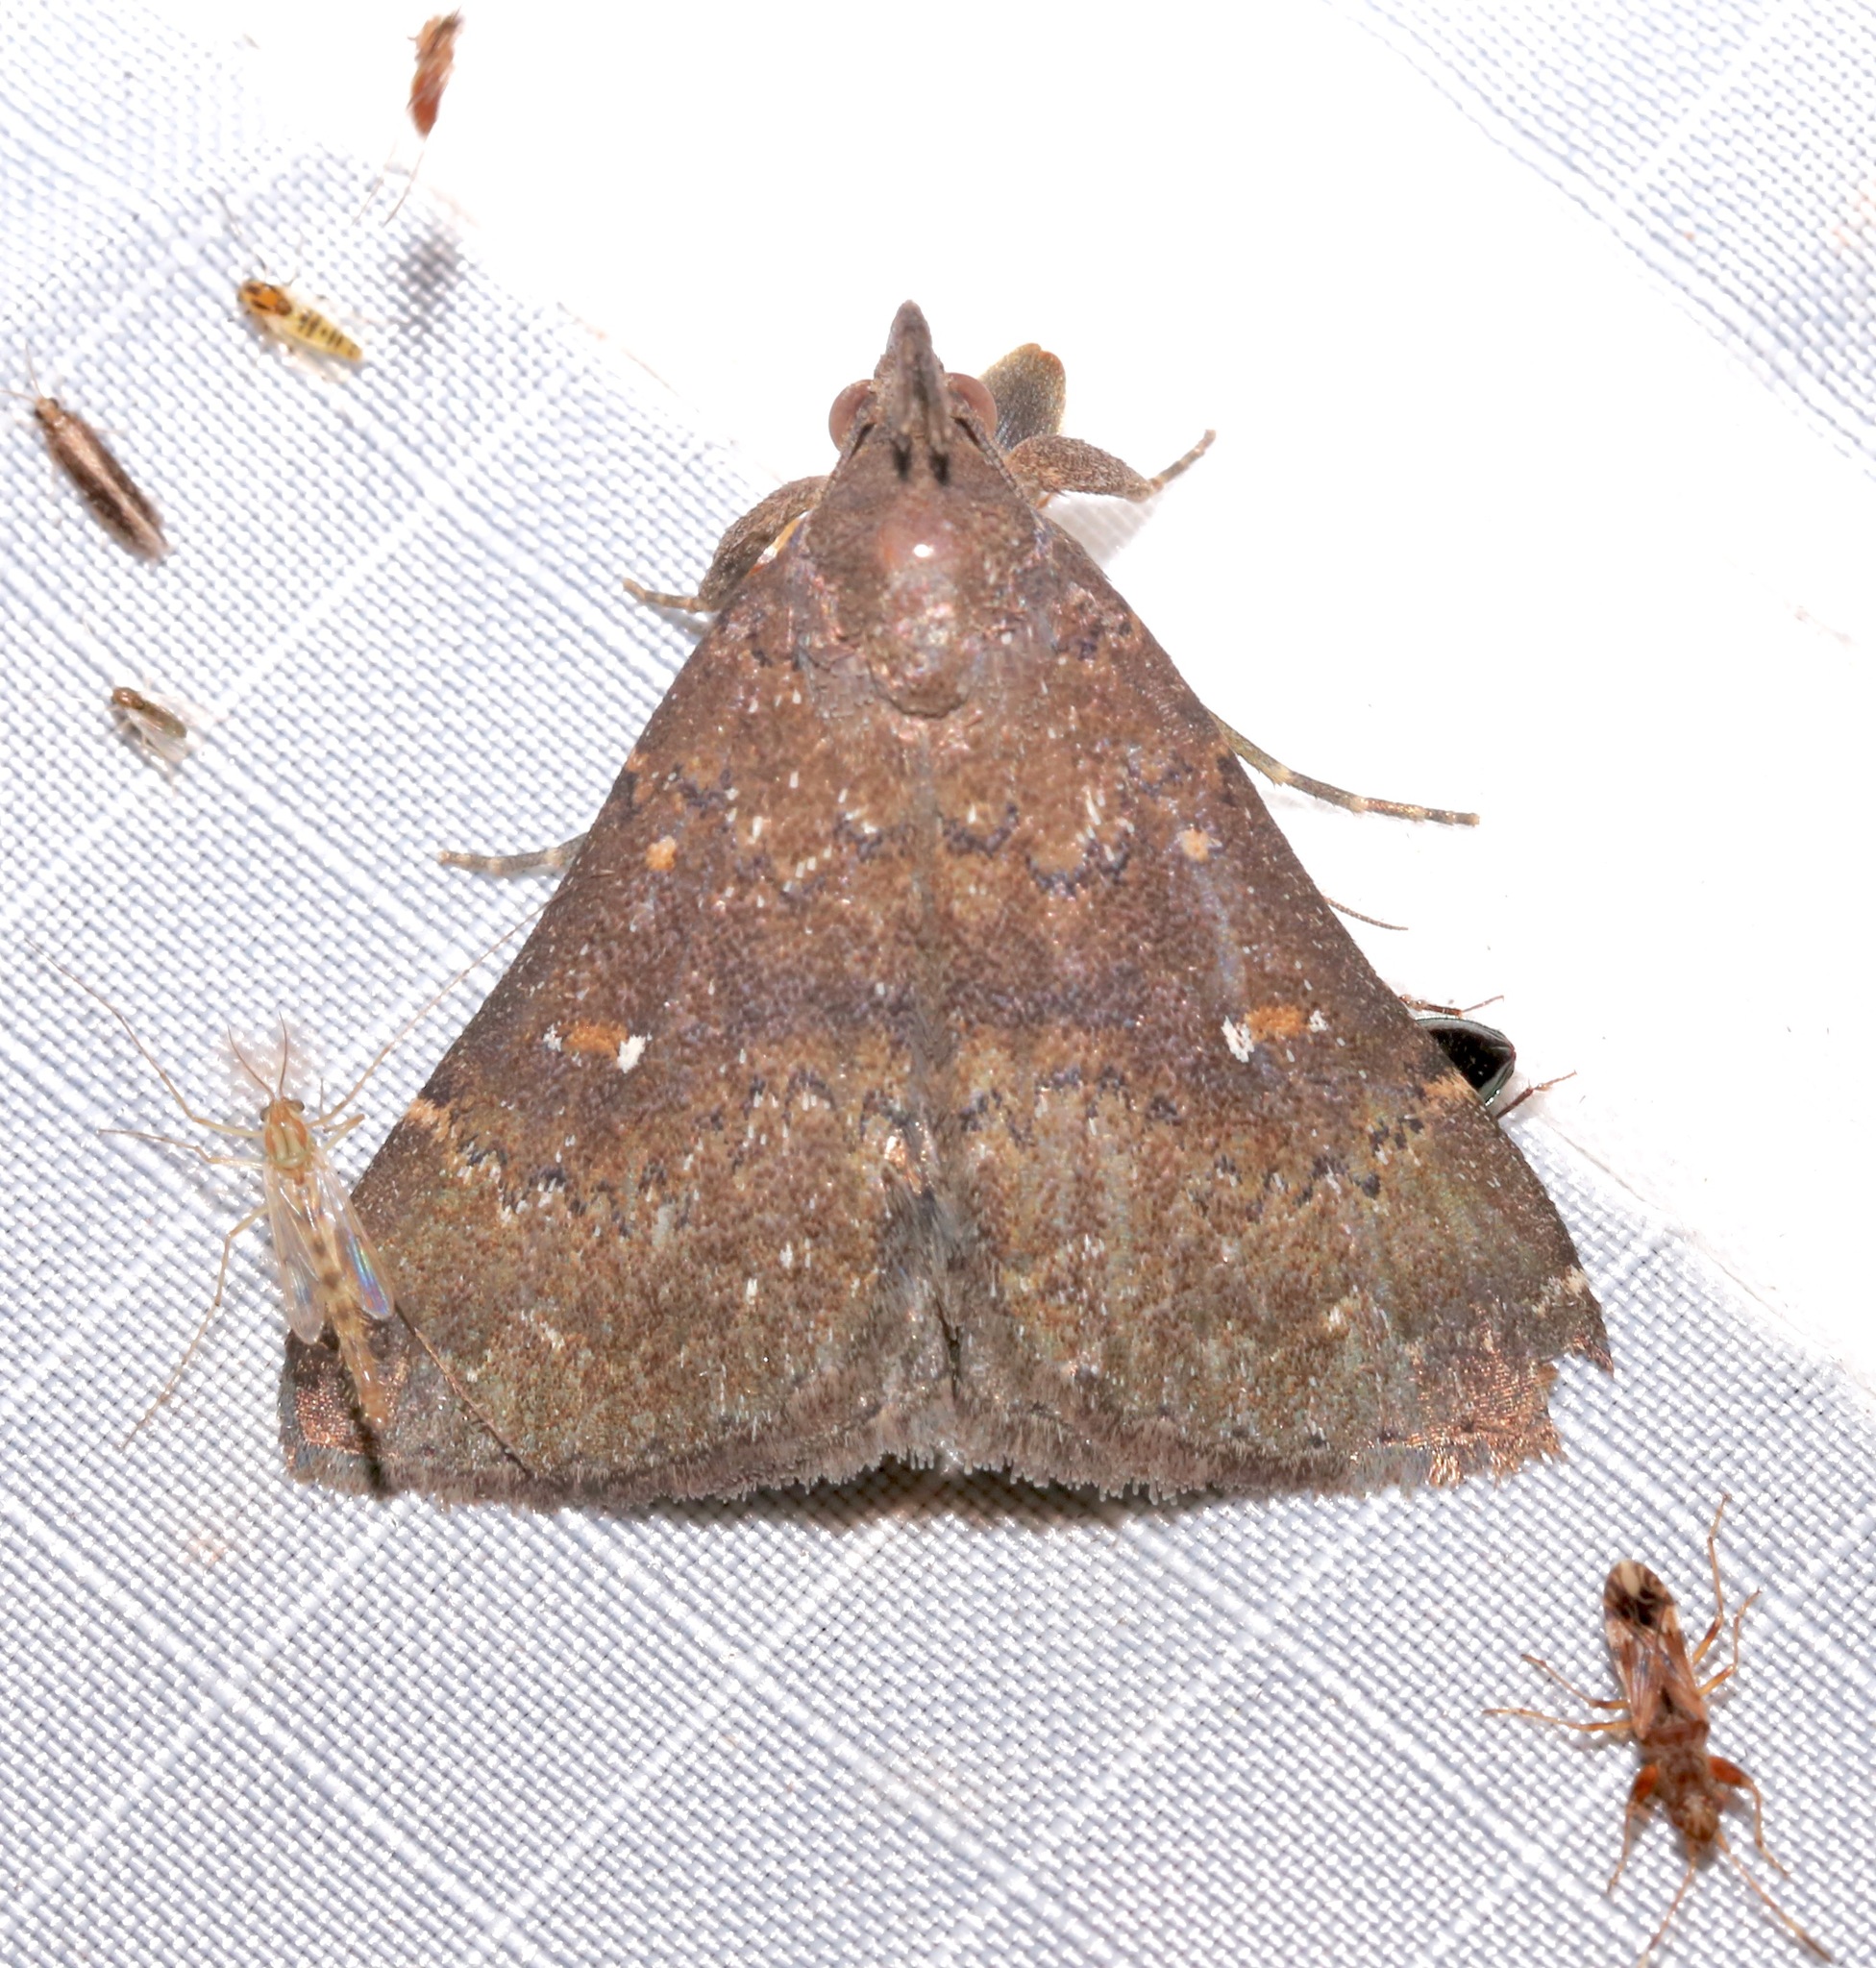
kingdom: Animalia
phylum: Arthropoda
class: Insecta
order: Lepidoptera
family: Erebidae
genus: Hypenula
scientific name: Hypenula cacuminalis
